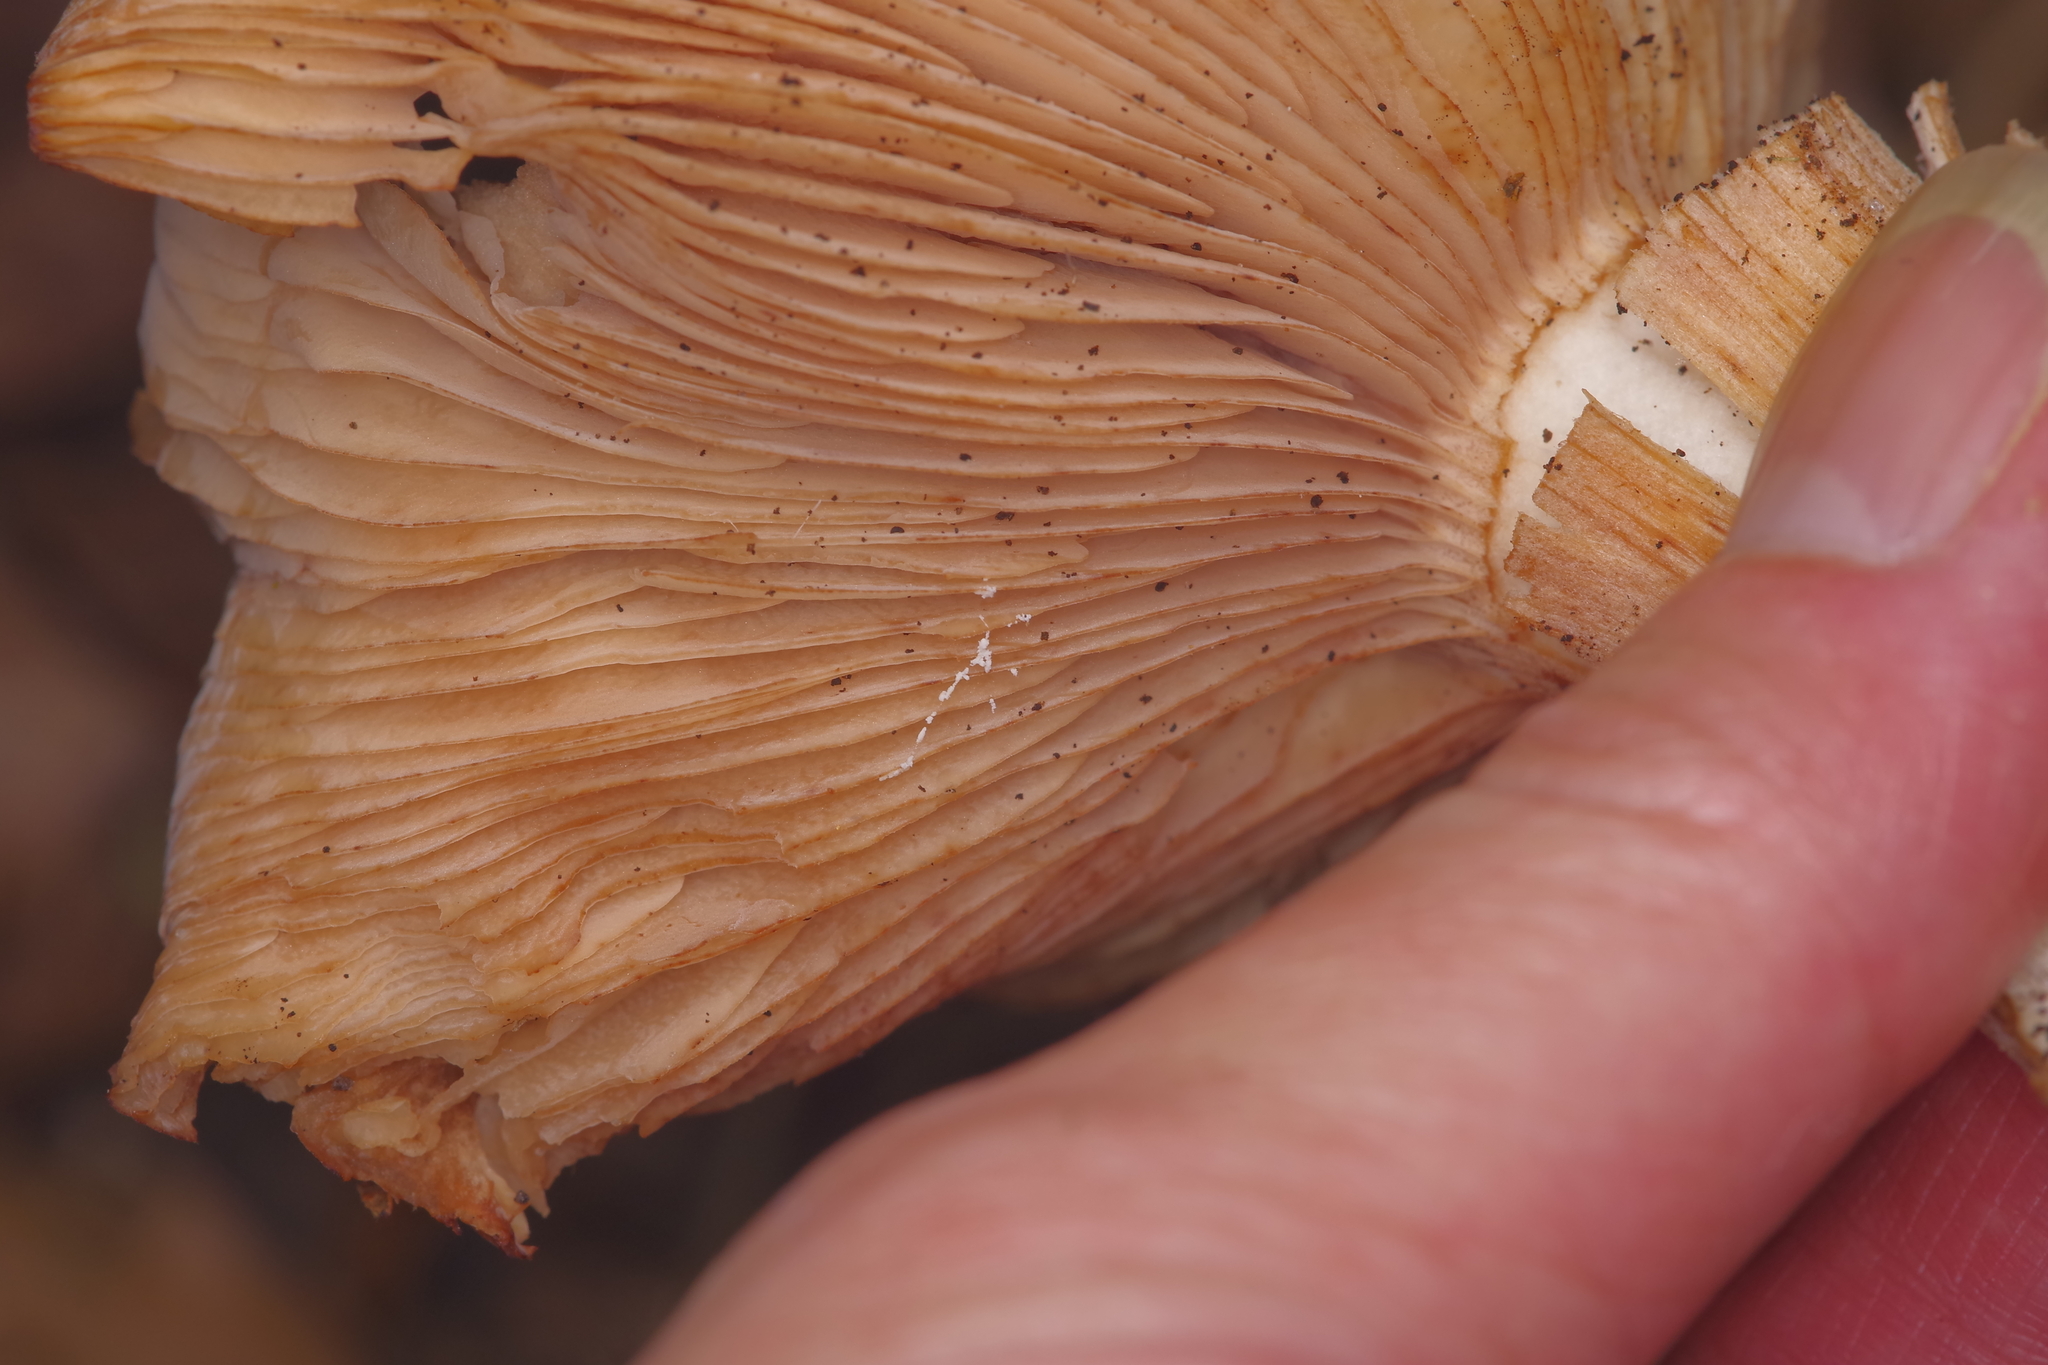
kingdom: Fungi
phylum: Basidiomycota
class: Agaricomycetes
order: Agaricales
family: Physalacriaceae
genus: Armillaria
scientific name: Armillaria gallica
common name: Bulbous honey fungus
